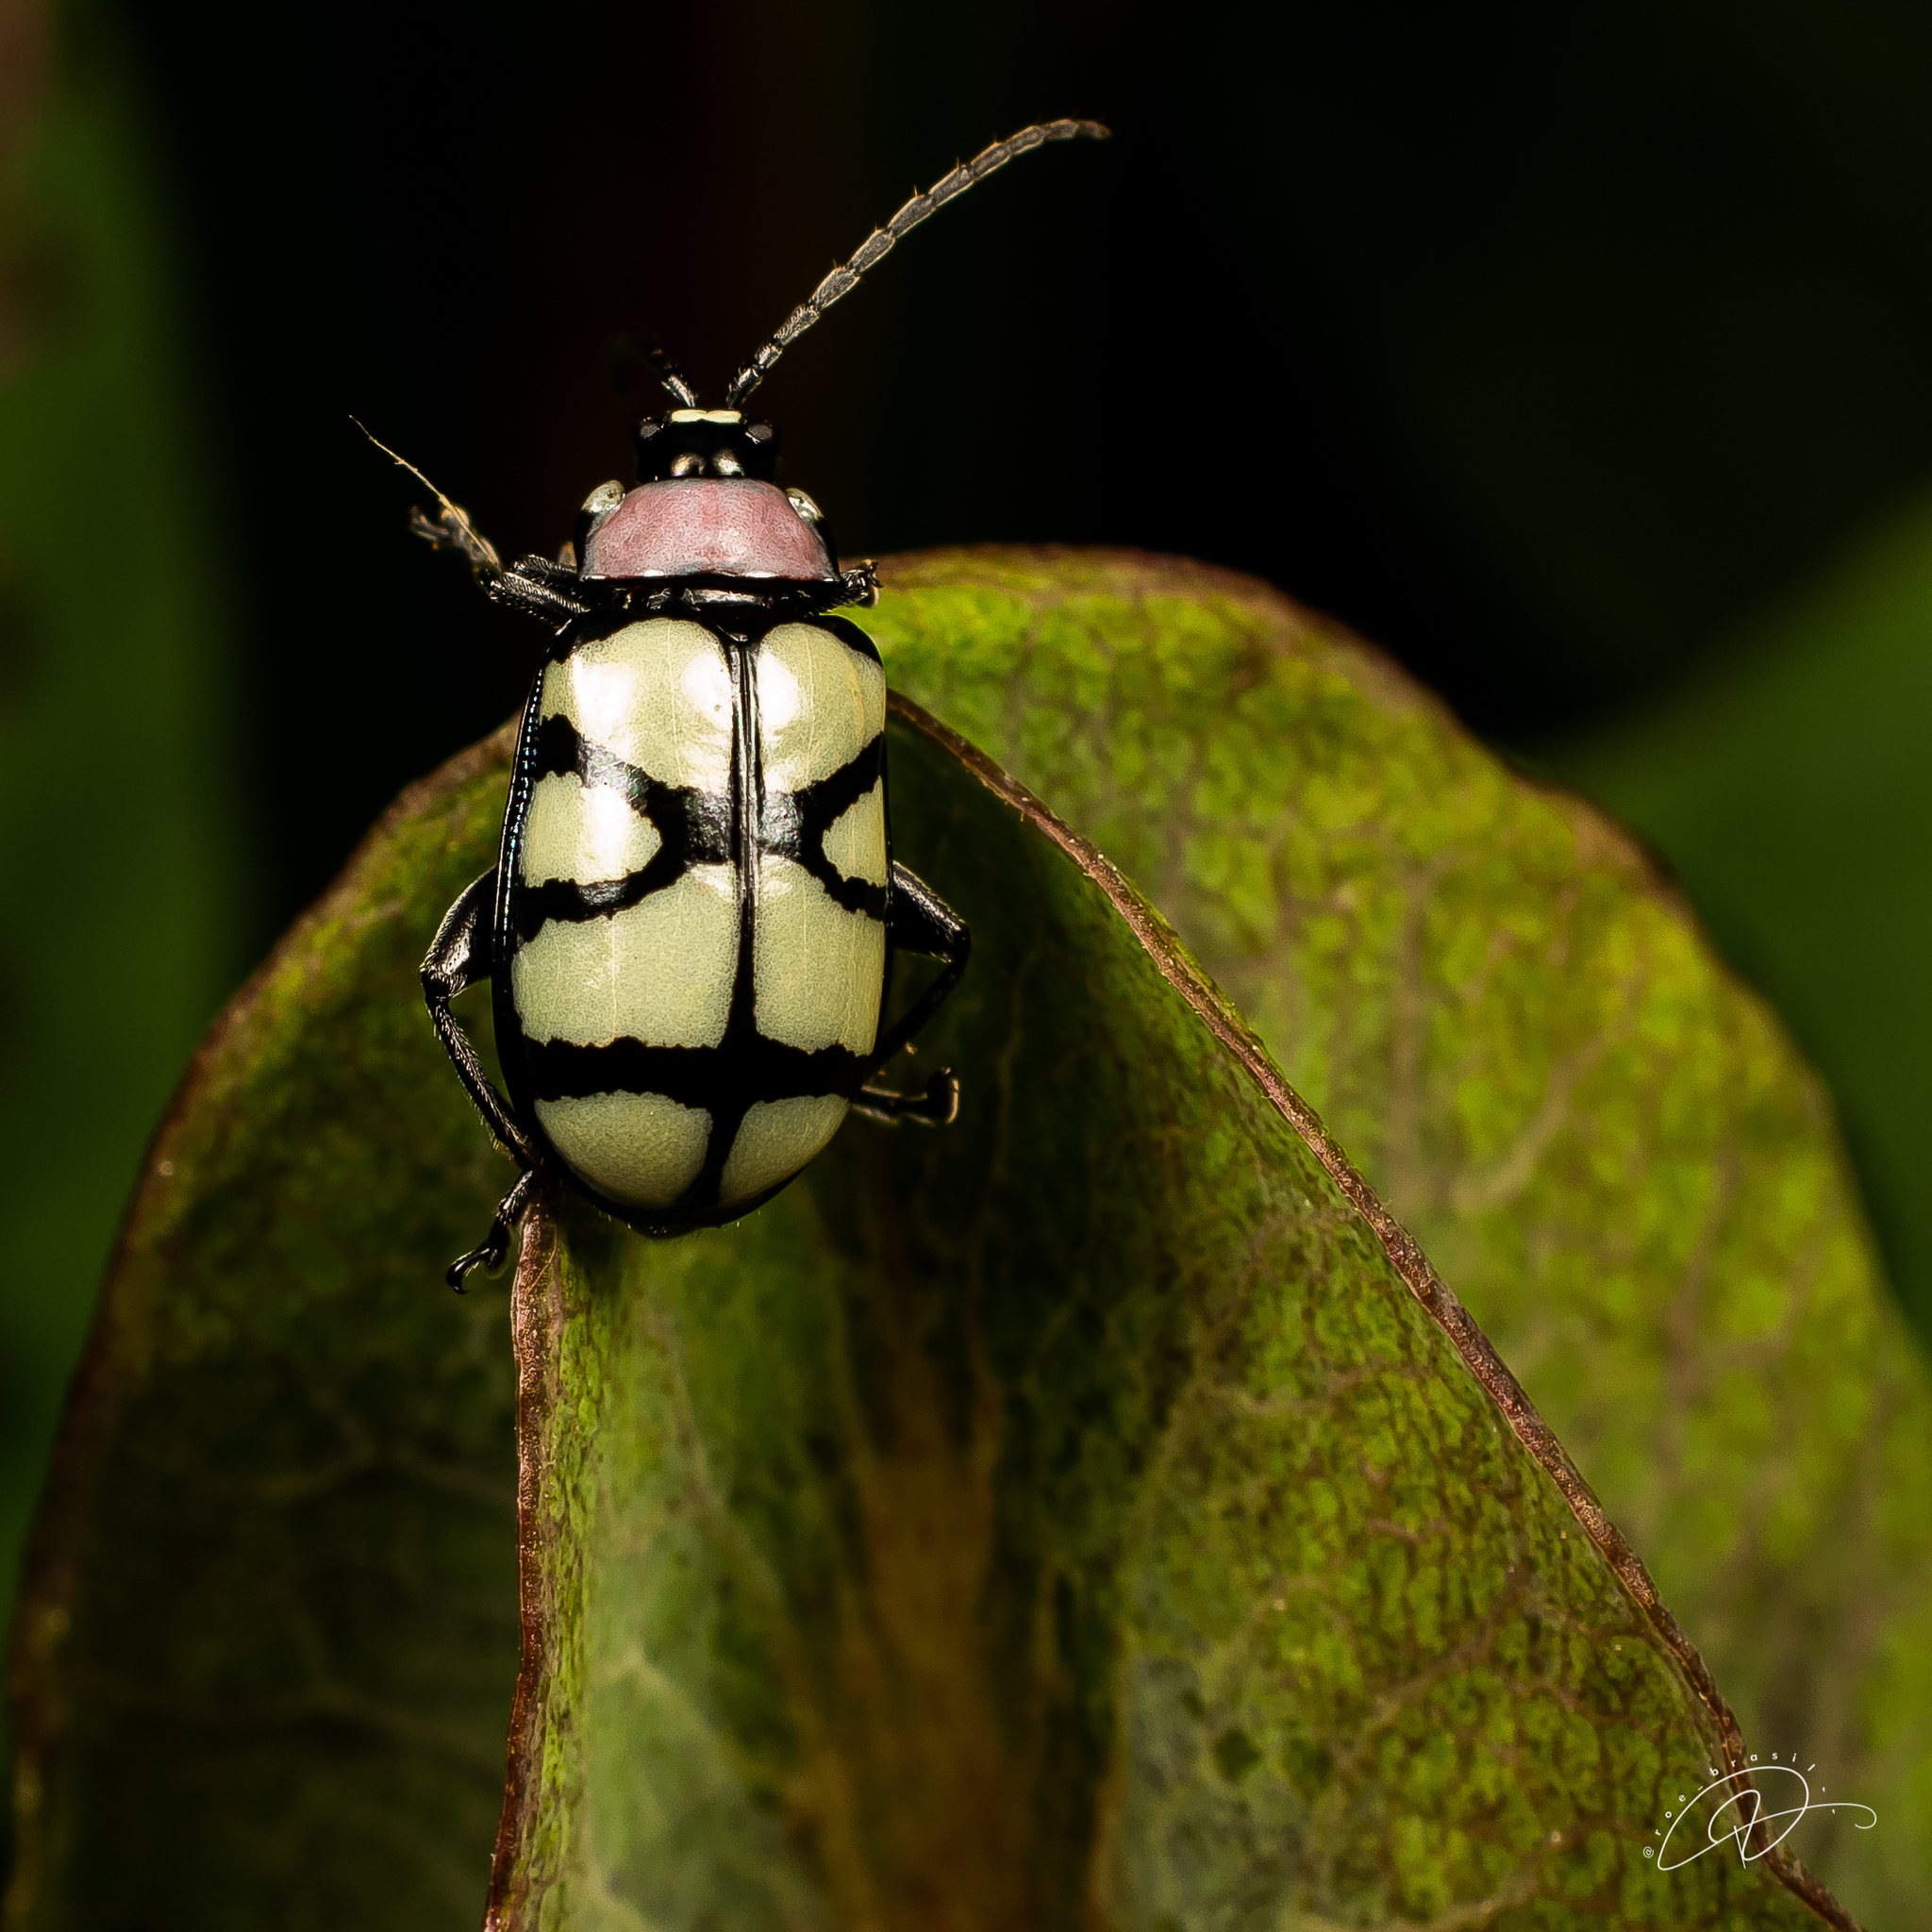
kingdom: Animalia
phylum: Arthropoda
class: Insecta
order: Coleoptera
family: Chrysomelidae
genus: Omophoita
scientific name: Omophoita
